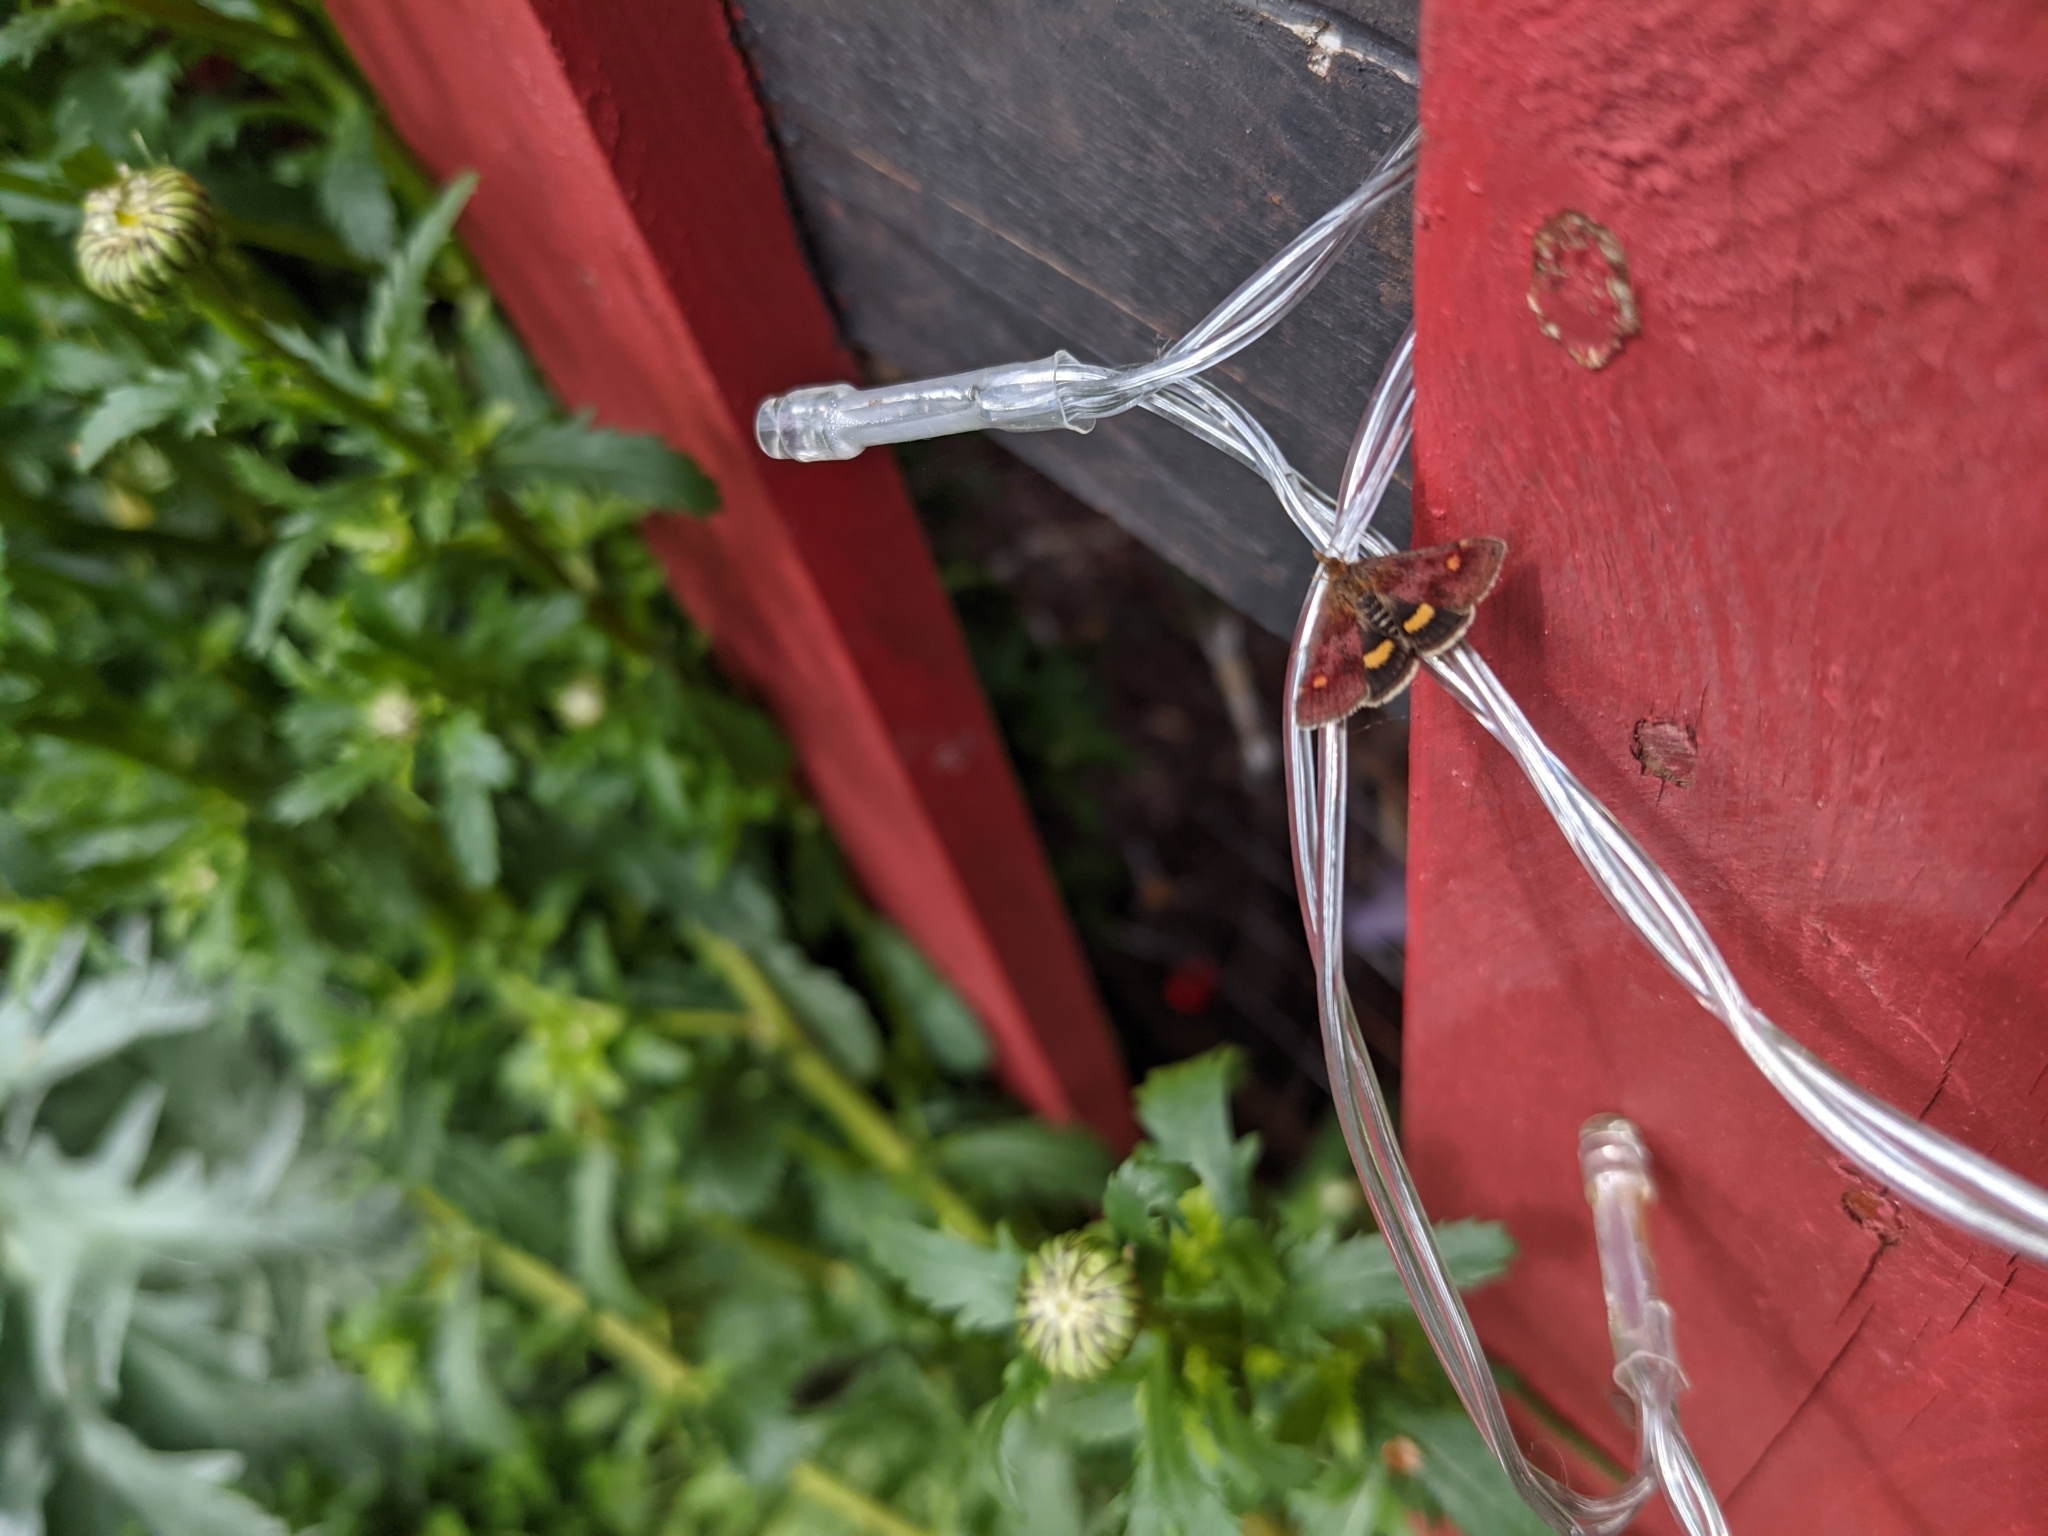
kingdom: Animalia
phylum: Arthropoda
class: Insecta
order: Lepidoptera
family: Crambidae
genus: Pyrausta
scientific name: Pyrausta aurata
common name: Small purple & gold
